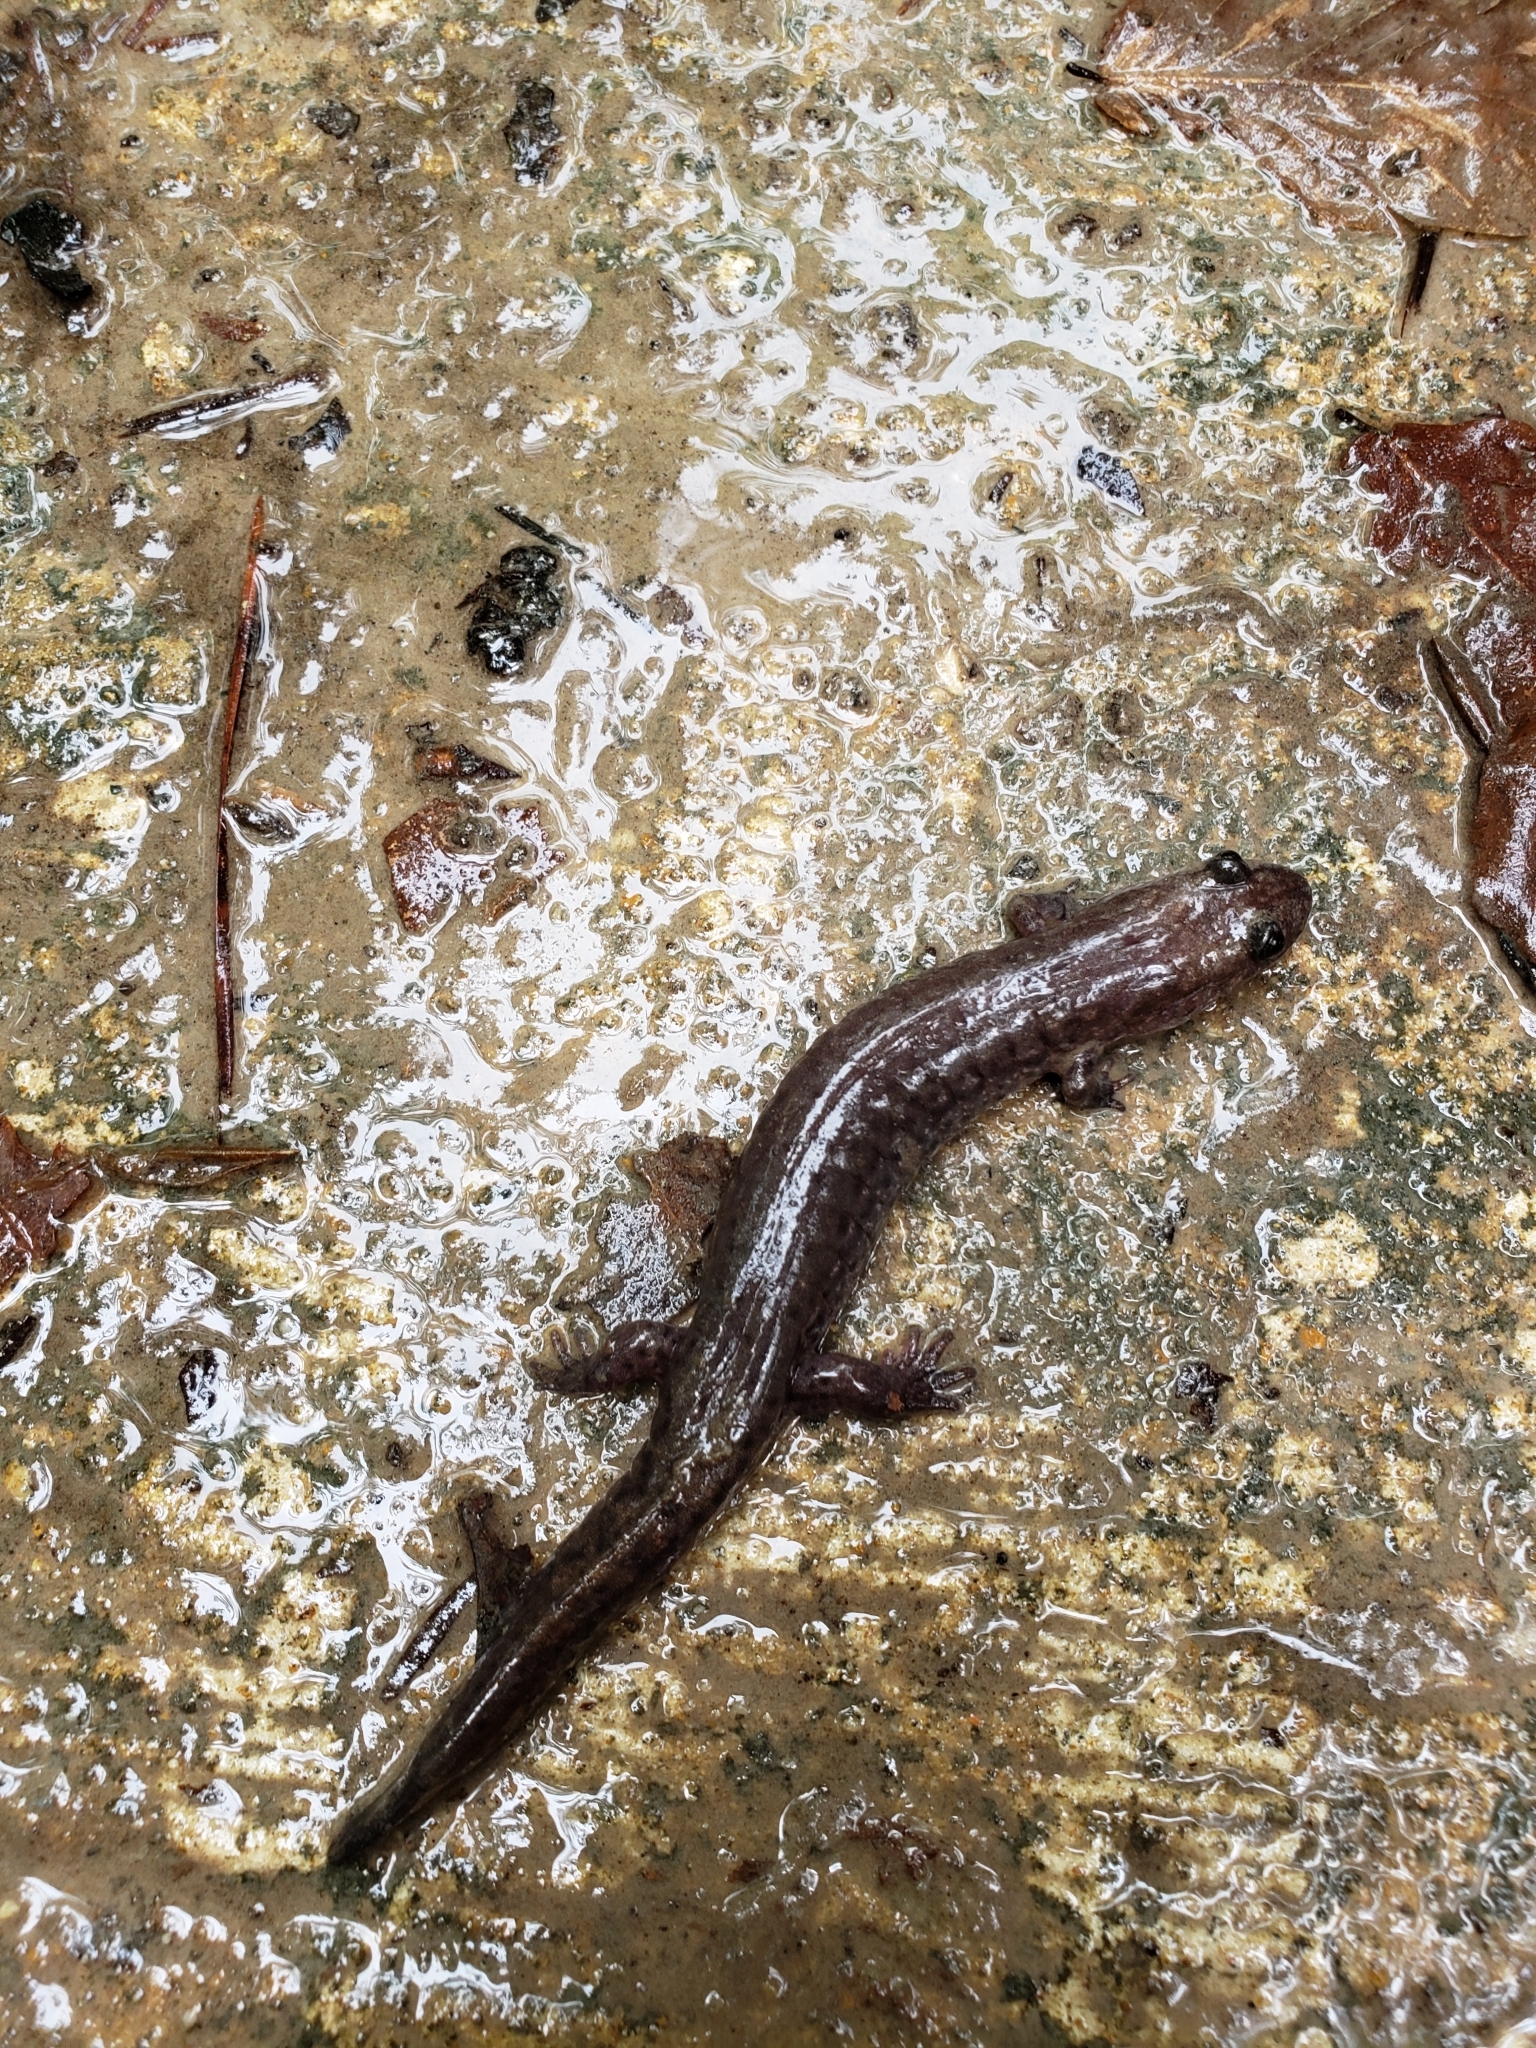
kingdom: Animalia
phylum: Chordata
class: Amphibia
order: Caudata
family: Plethodontidae
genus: Desmognathus
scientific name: Desmognathus brimleyorum
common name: Ouachita dusky salamander
